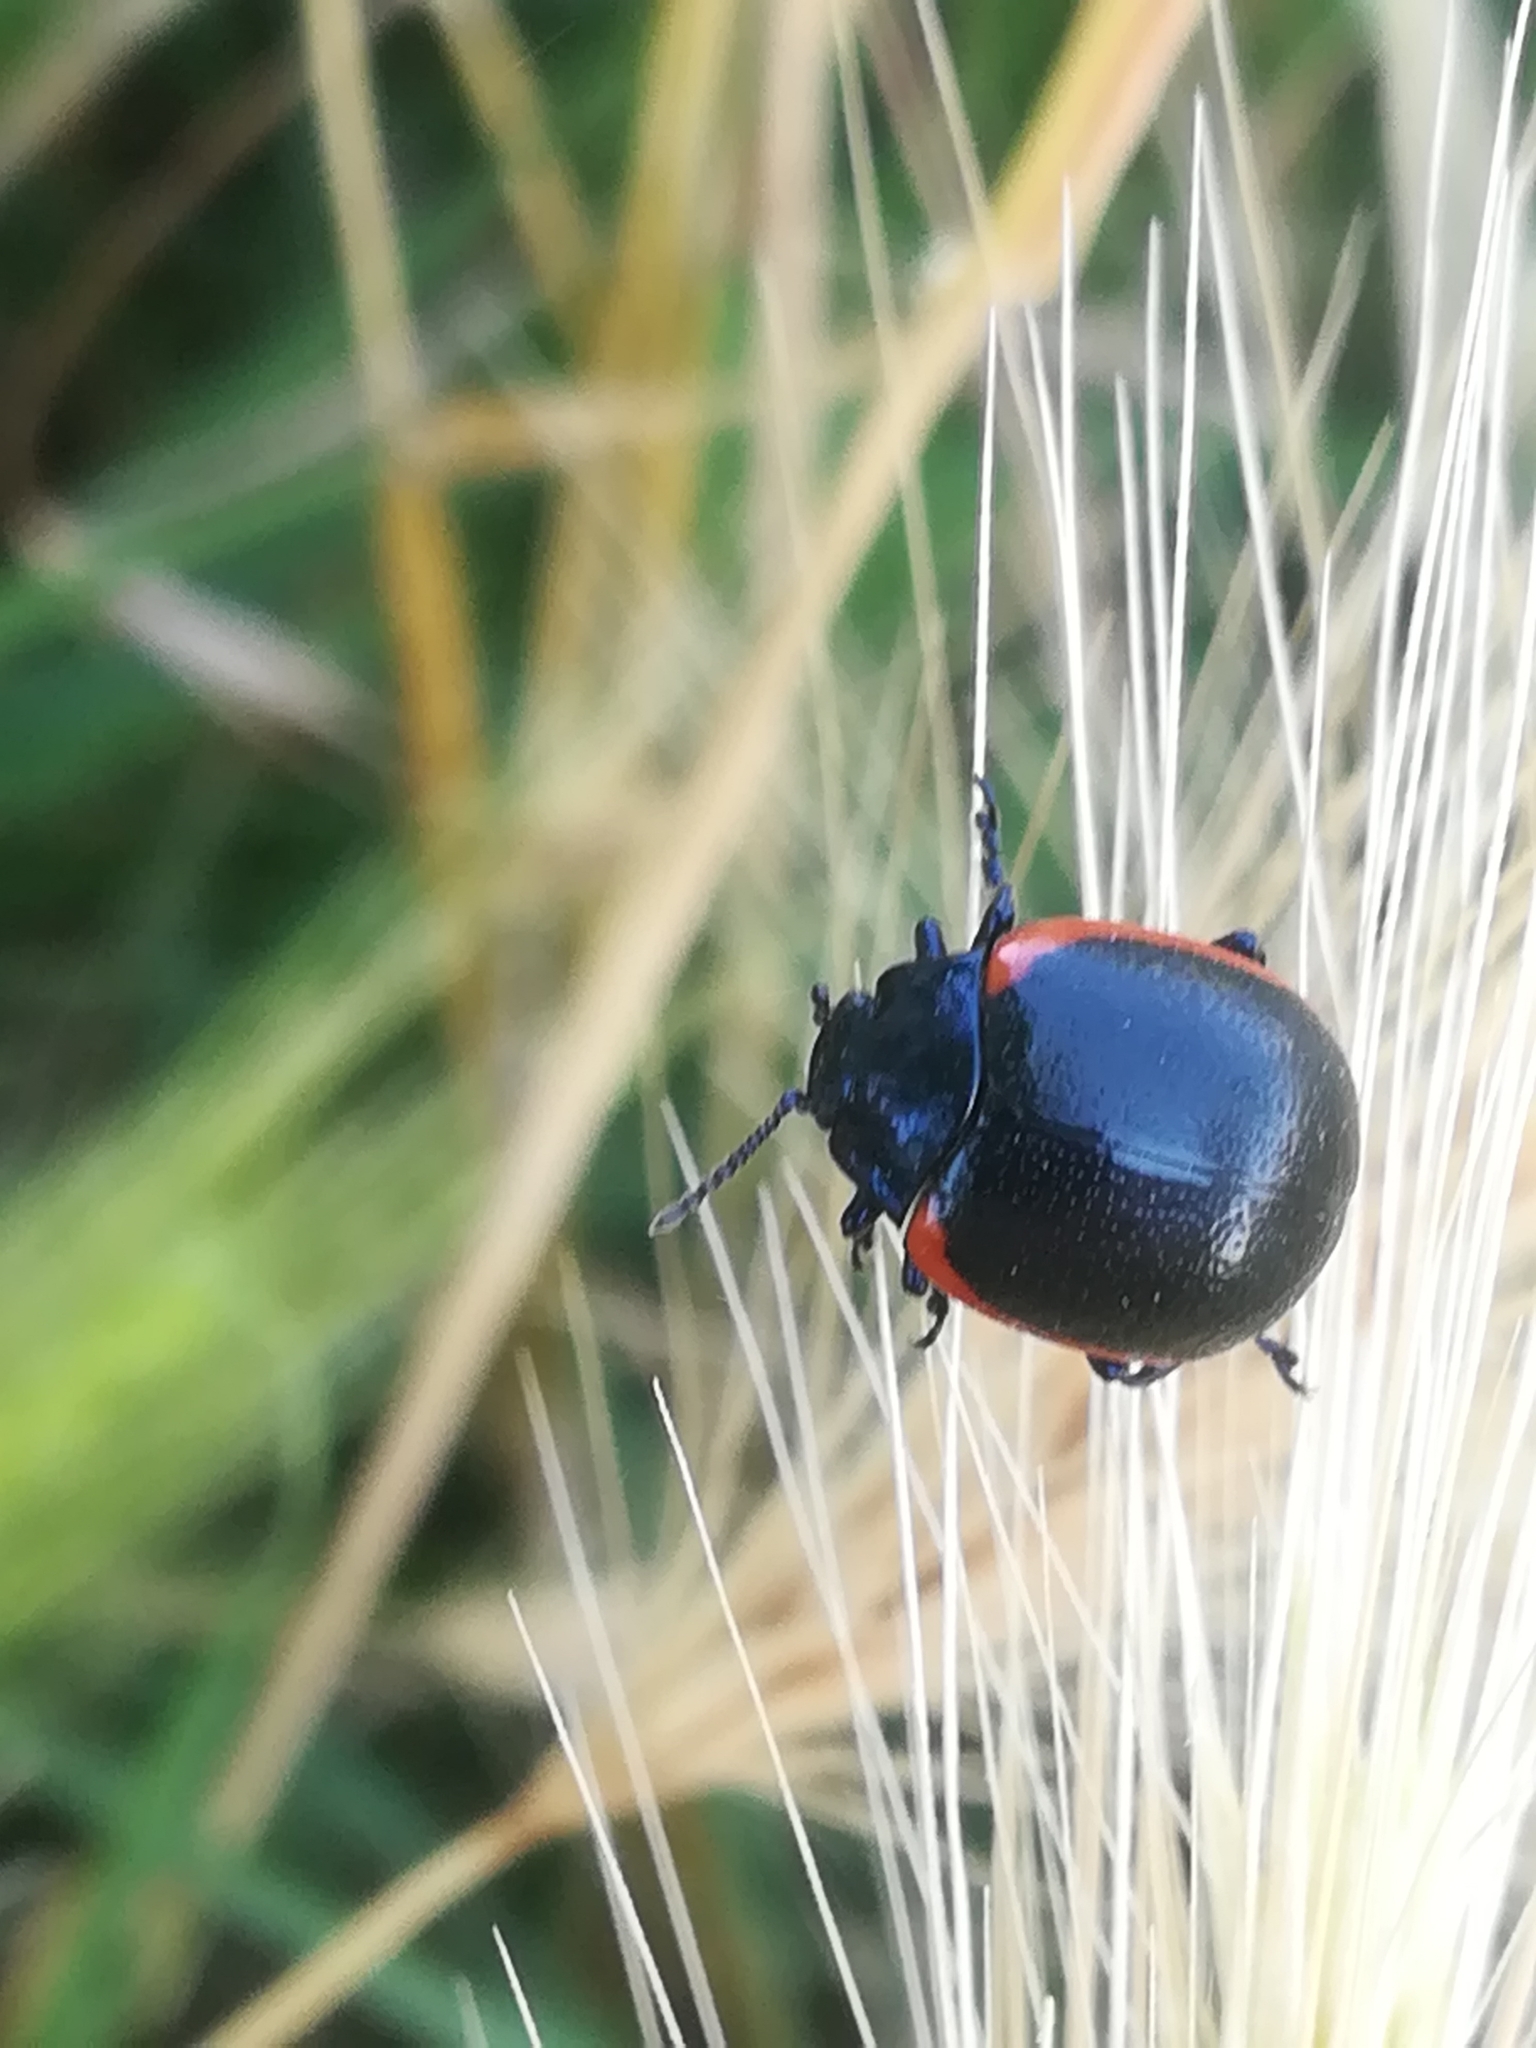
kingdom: Animalia
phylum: Arthropoda
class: Insecta
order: Coleoptera
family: Chrysomelidae
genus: Chrysolina
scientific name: Chrysolina rossia
